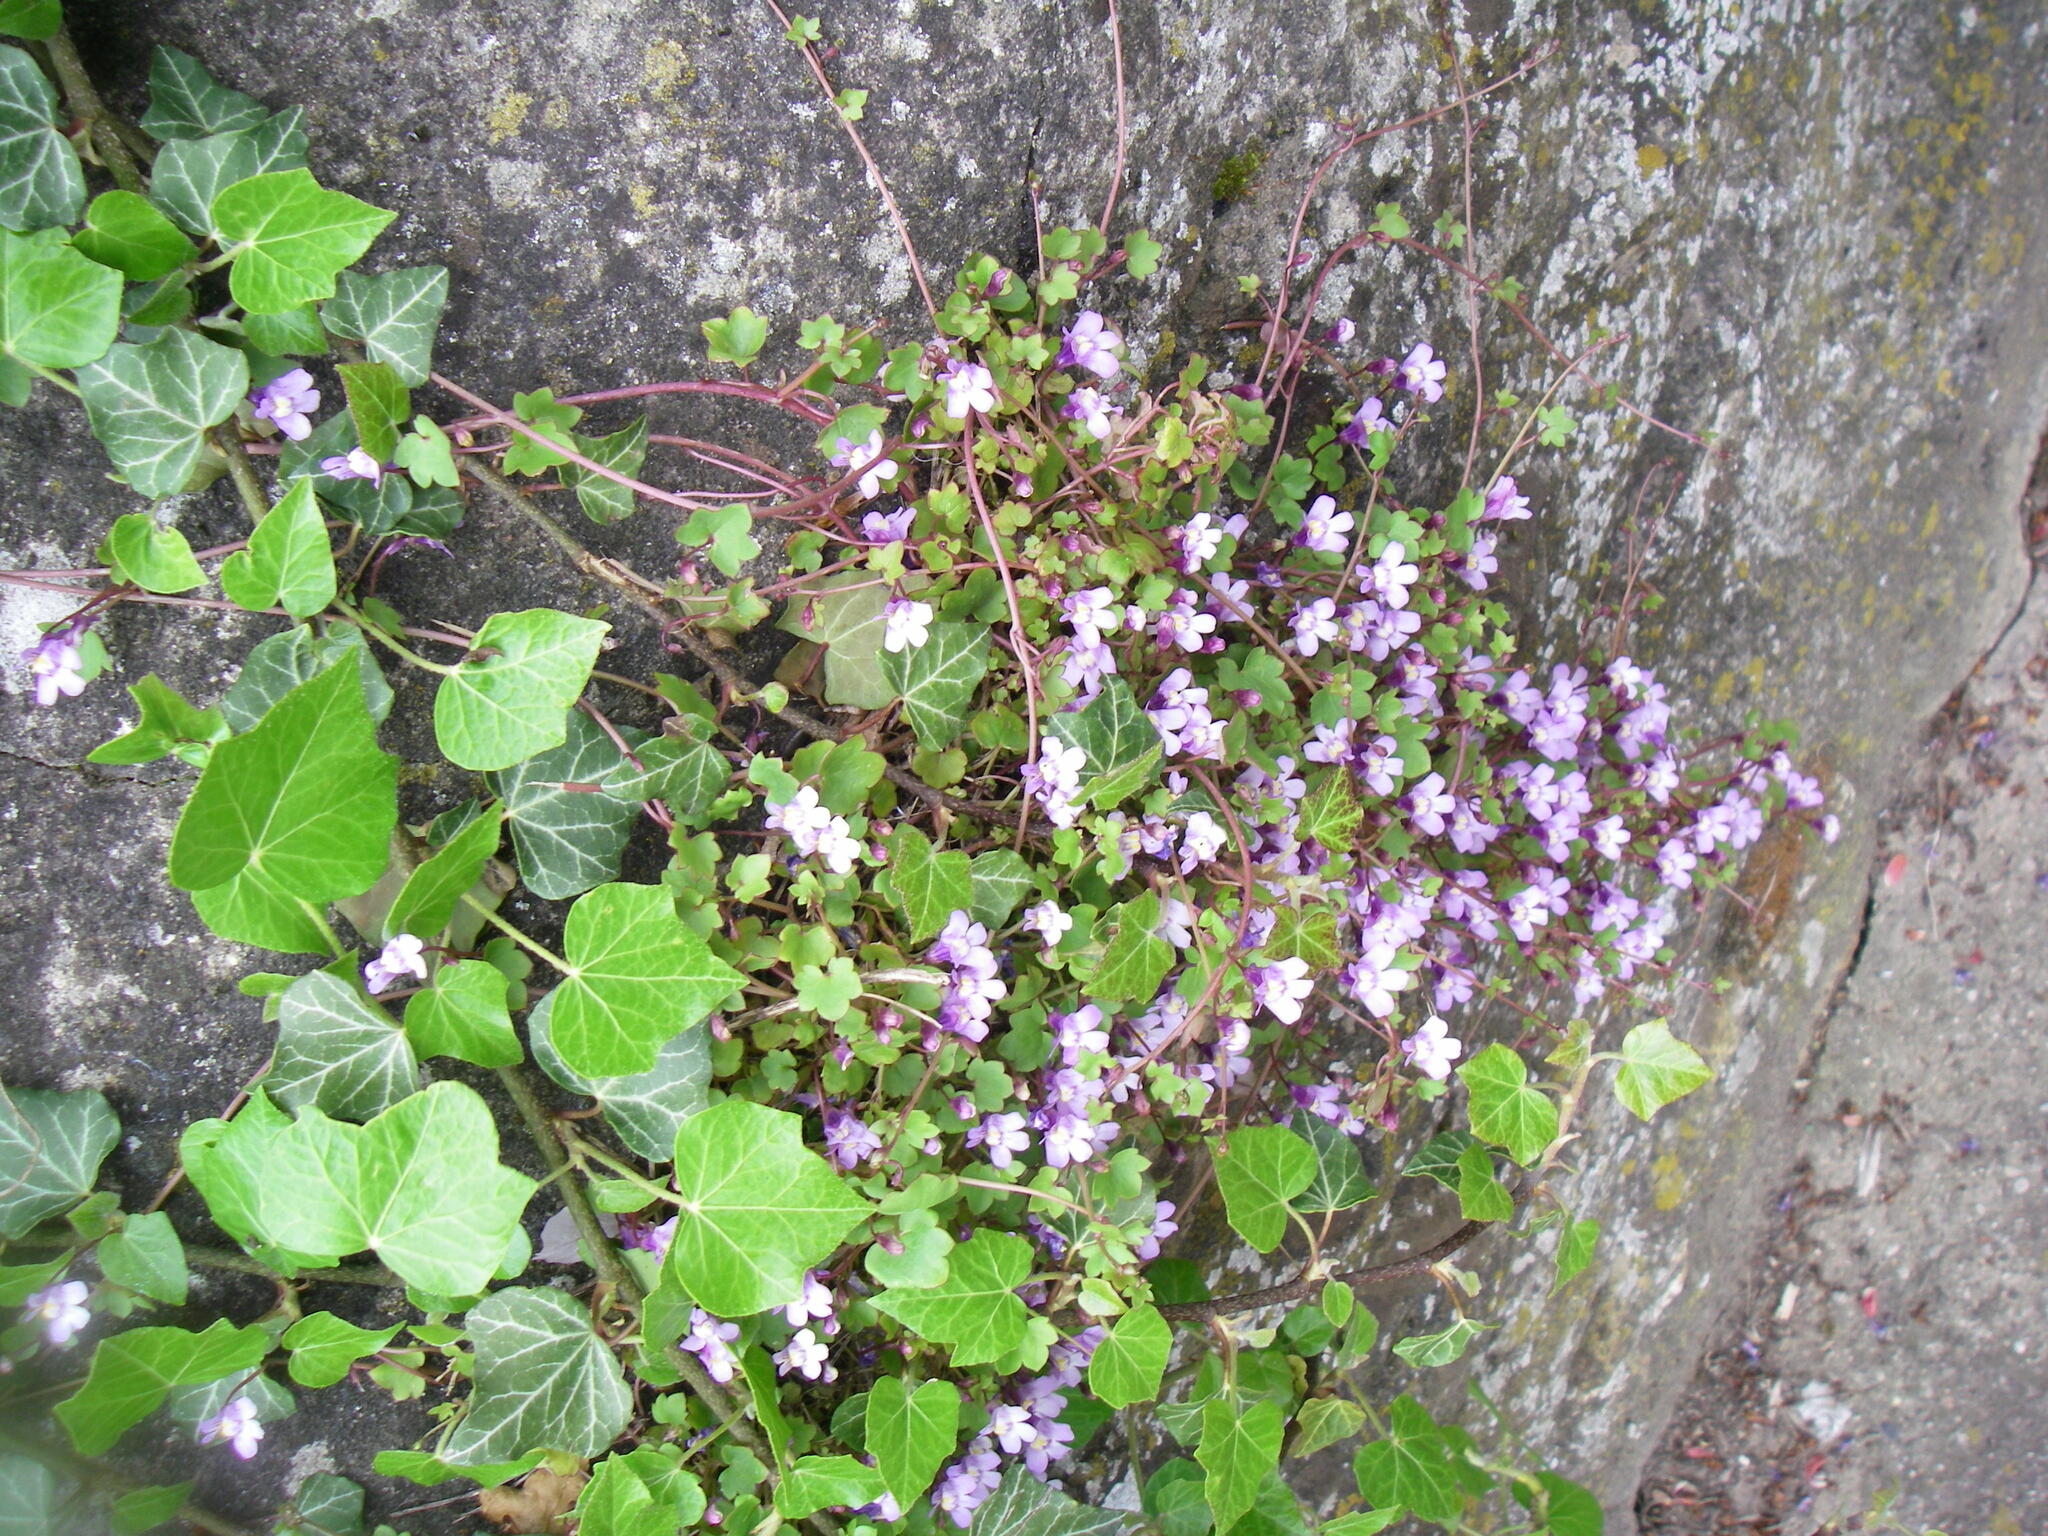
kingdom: Plantae
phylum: Tracheophyta
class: Magnoliopsida
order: Lamiales
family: Plantaginaceae
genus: Cymbalaria
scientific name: Cymbalaria muralis
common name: Ivy-leaved toadflax
